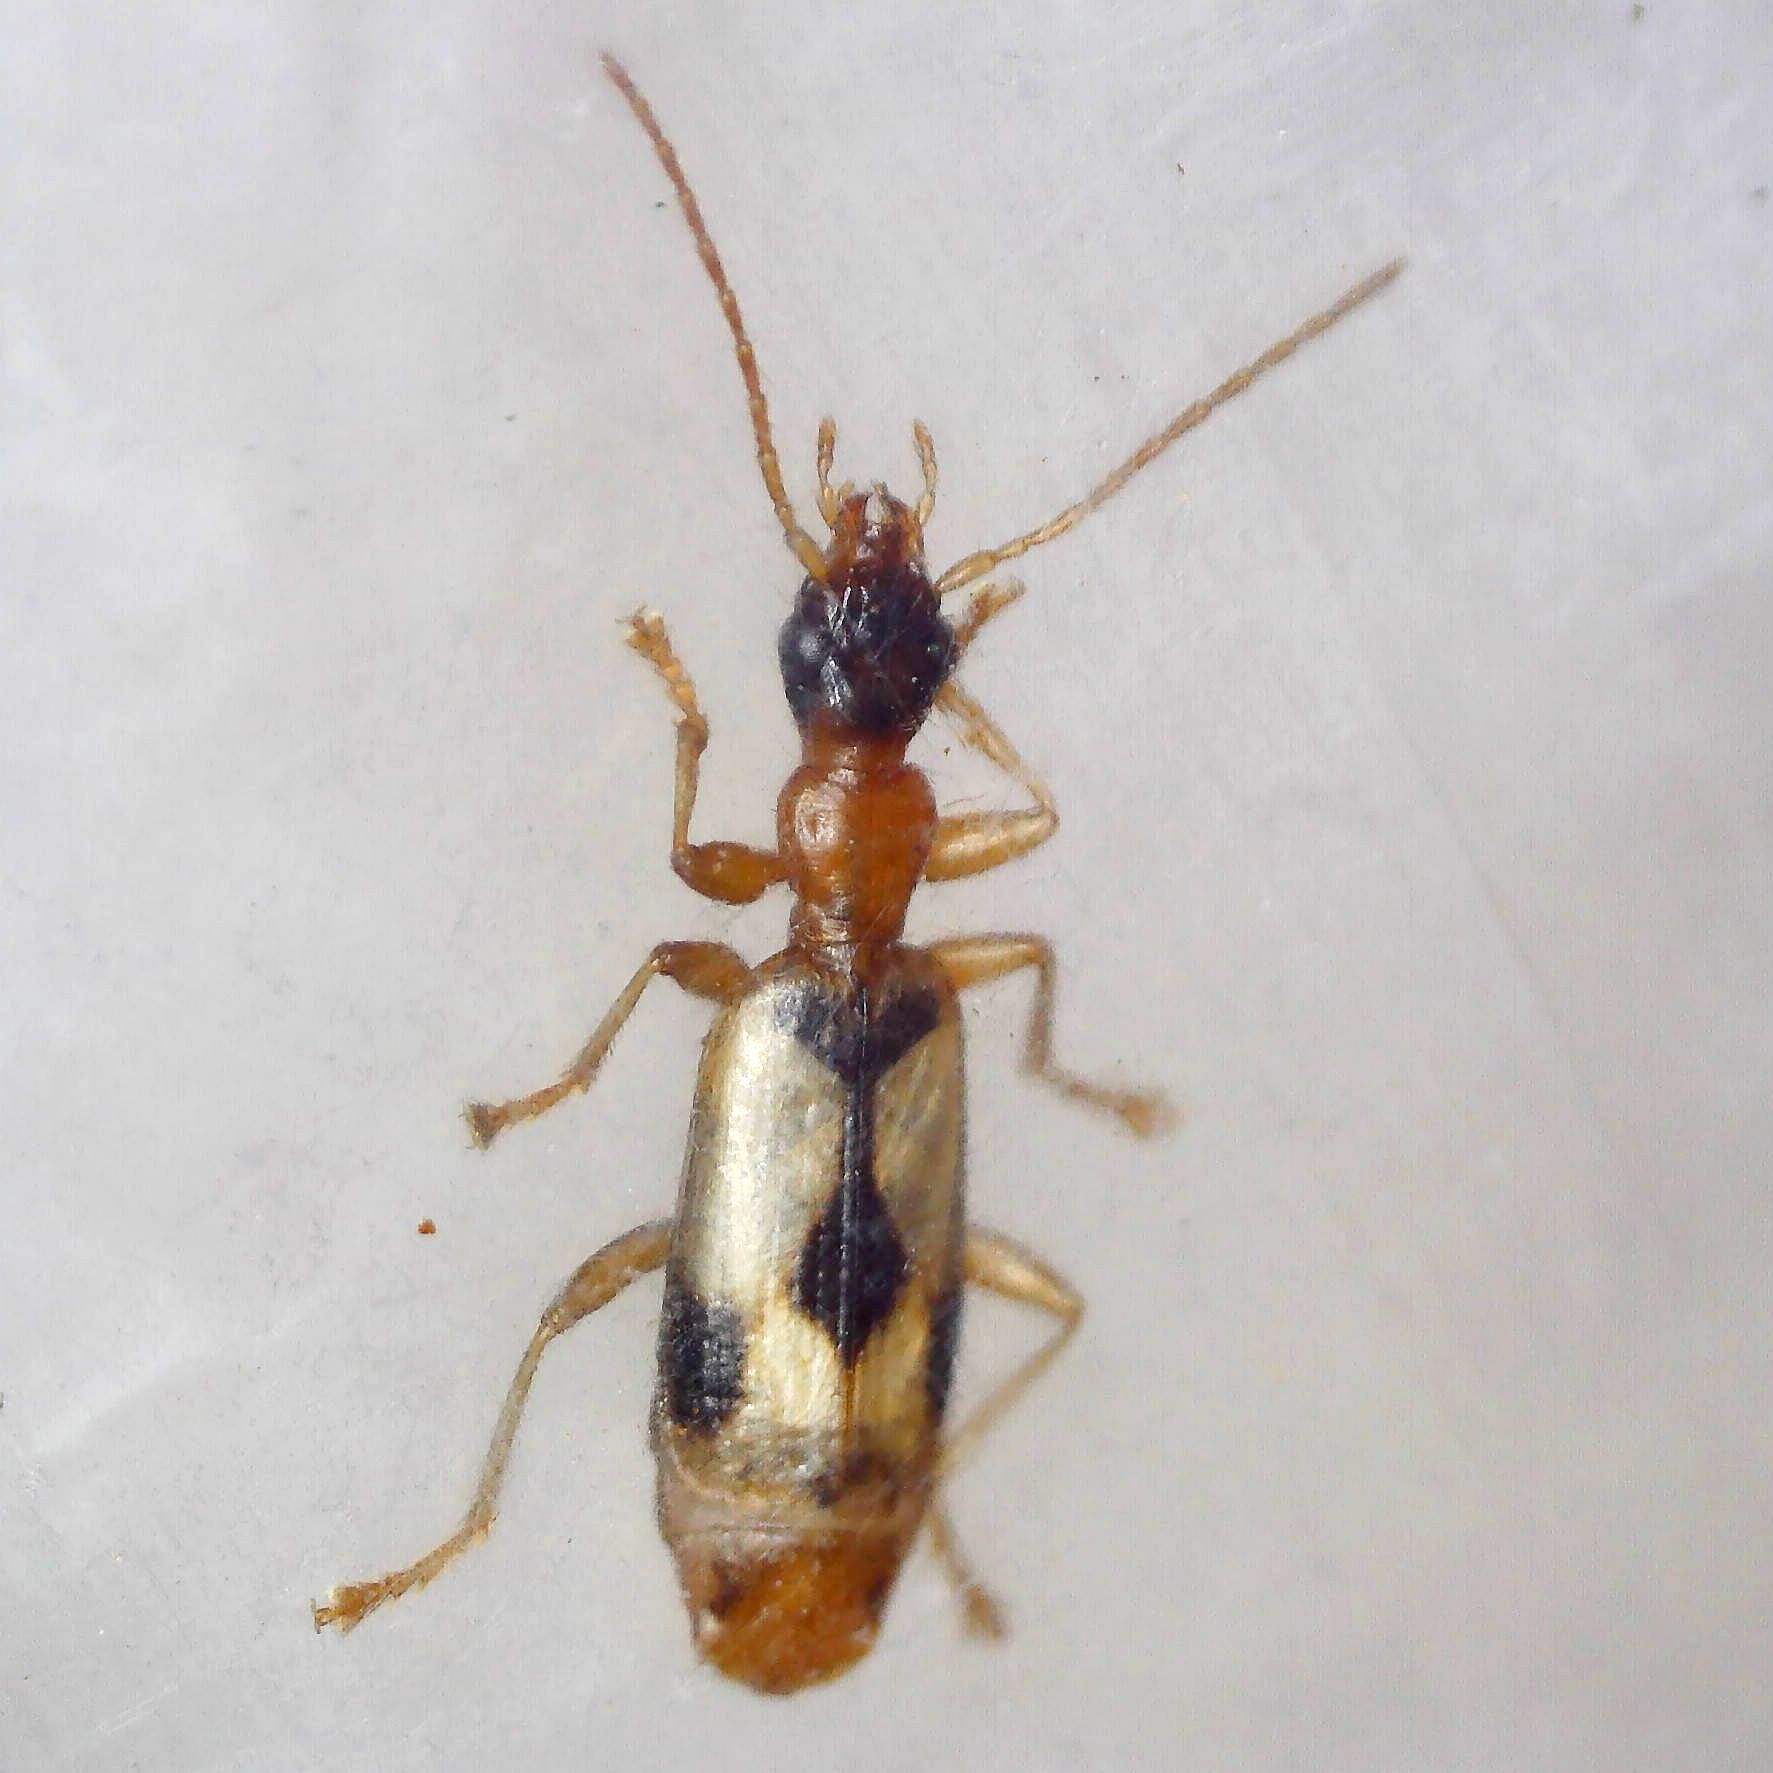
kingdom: Animalia
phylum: Arthropoda
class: Insecta
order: Coleoptera
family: Carabidae
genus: Demetrias
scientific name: Demetrias imperialis
